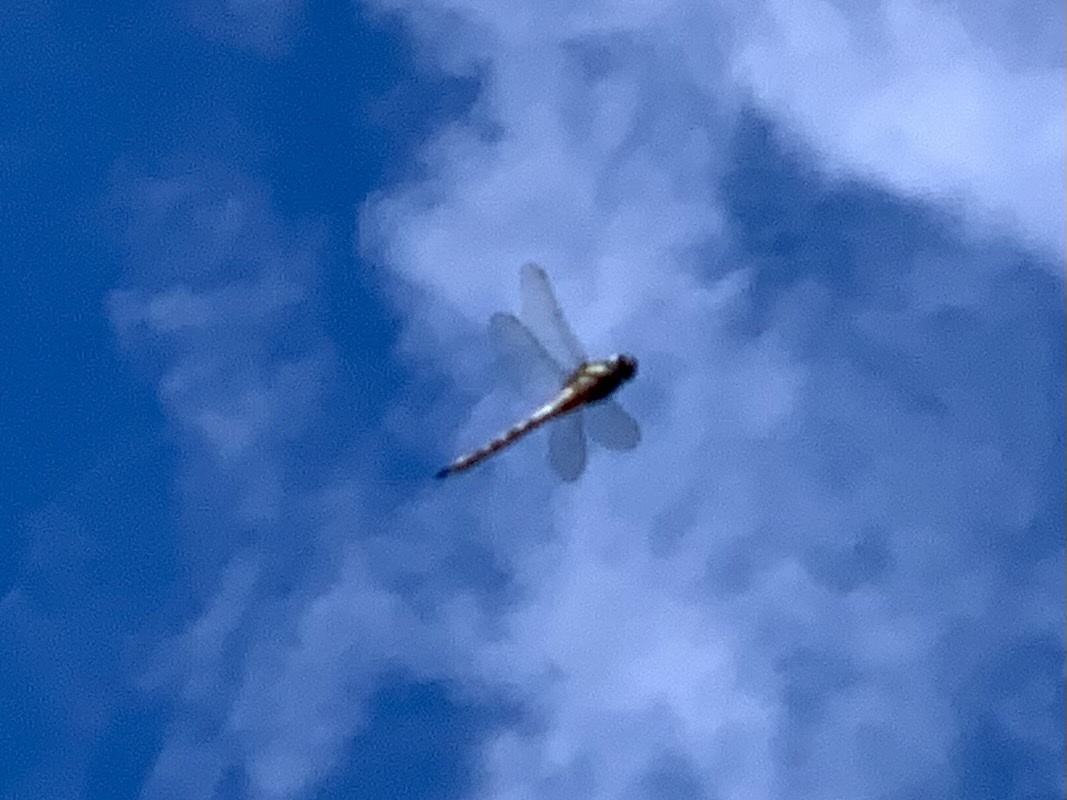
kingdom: Animalia
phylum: Arthropoda
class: Insecta
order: Odonata
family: Aeshnidae
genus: Aeshna
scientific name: Aeshna mixta
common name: Migrant hawker
